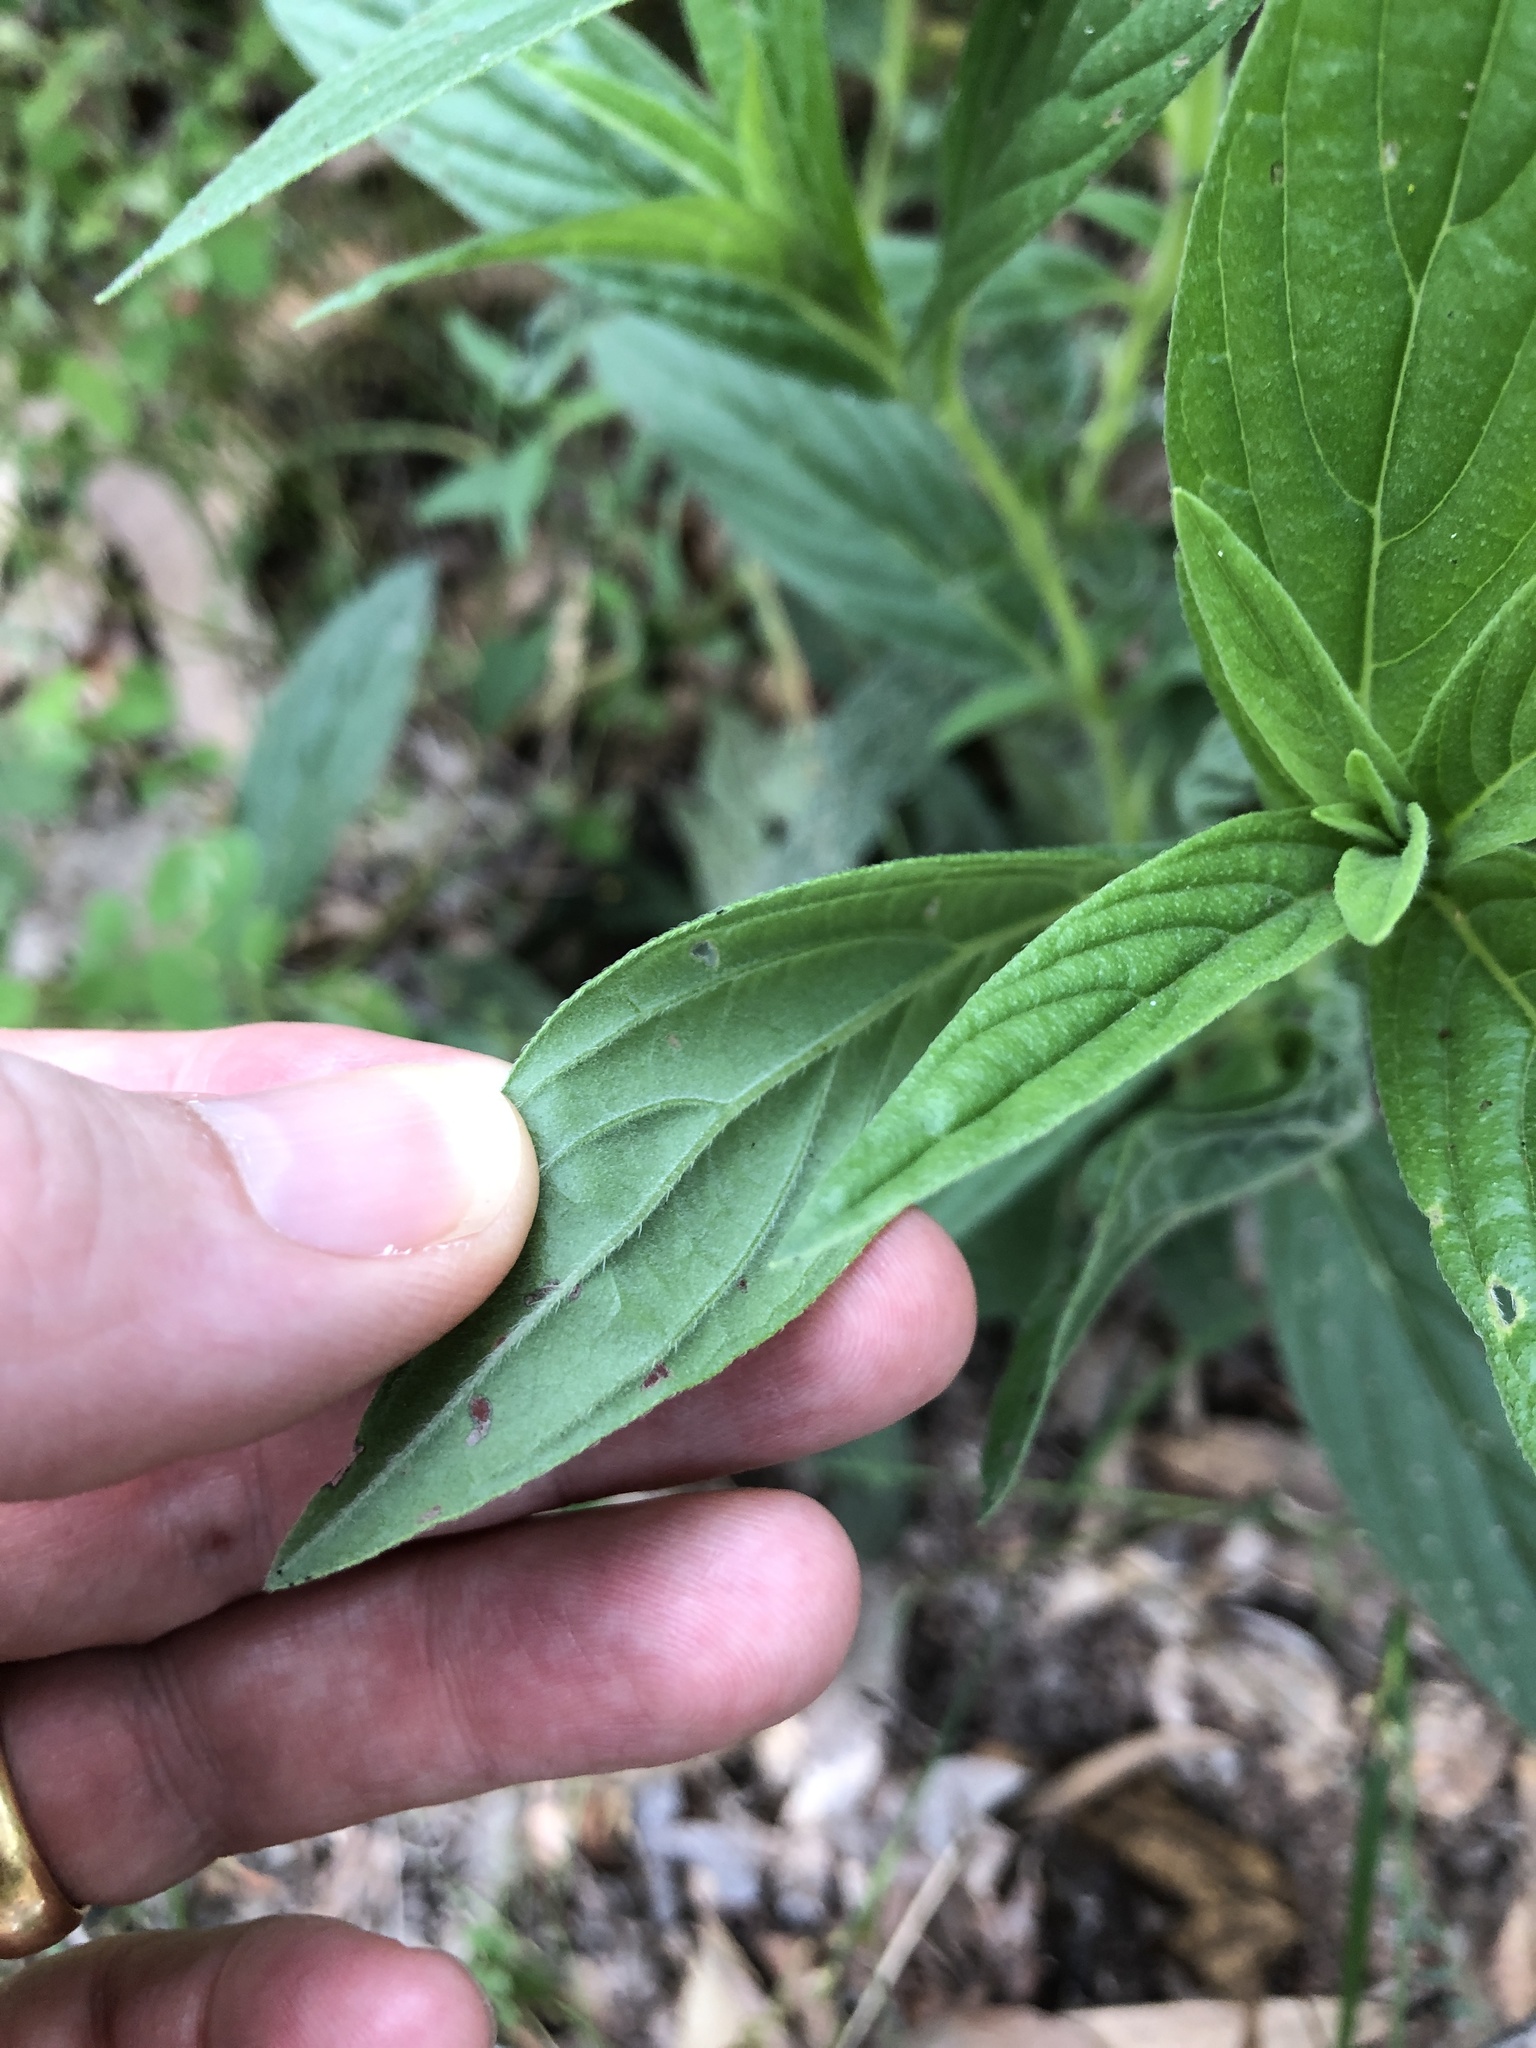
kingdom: Plantae
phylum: Tracheophyta
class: Magnoliopsida
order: Boraginales
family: Boraginaceae
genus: Trichodesma
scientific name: Trichodesma zeylanicum
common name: Camelbush
